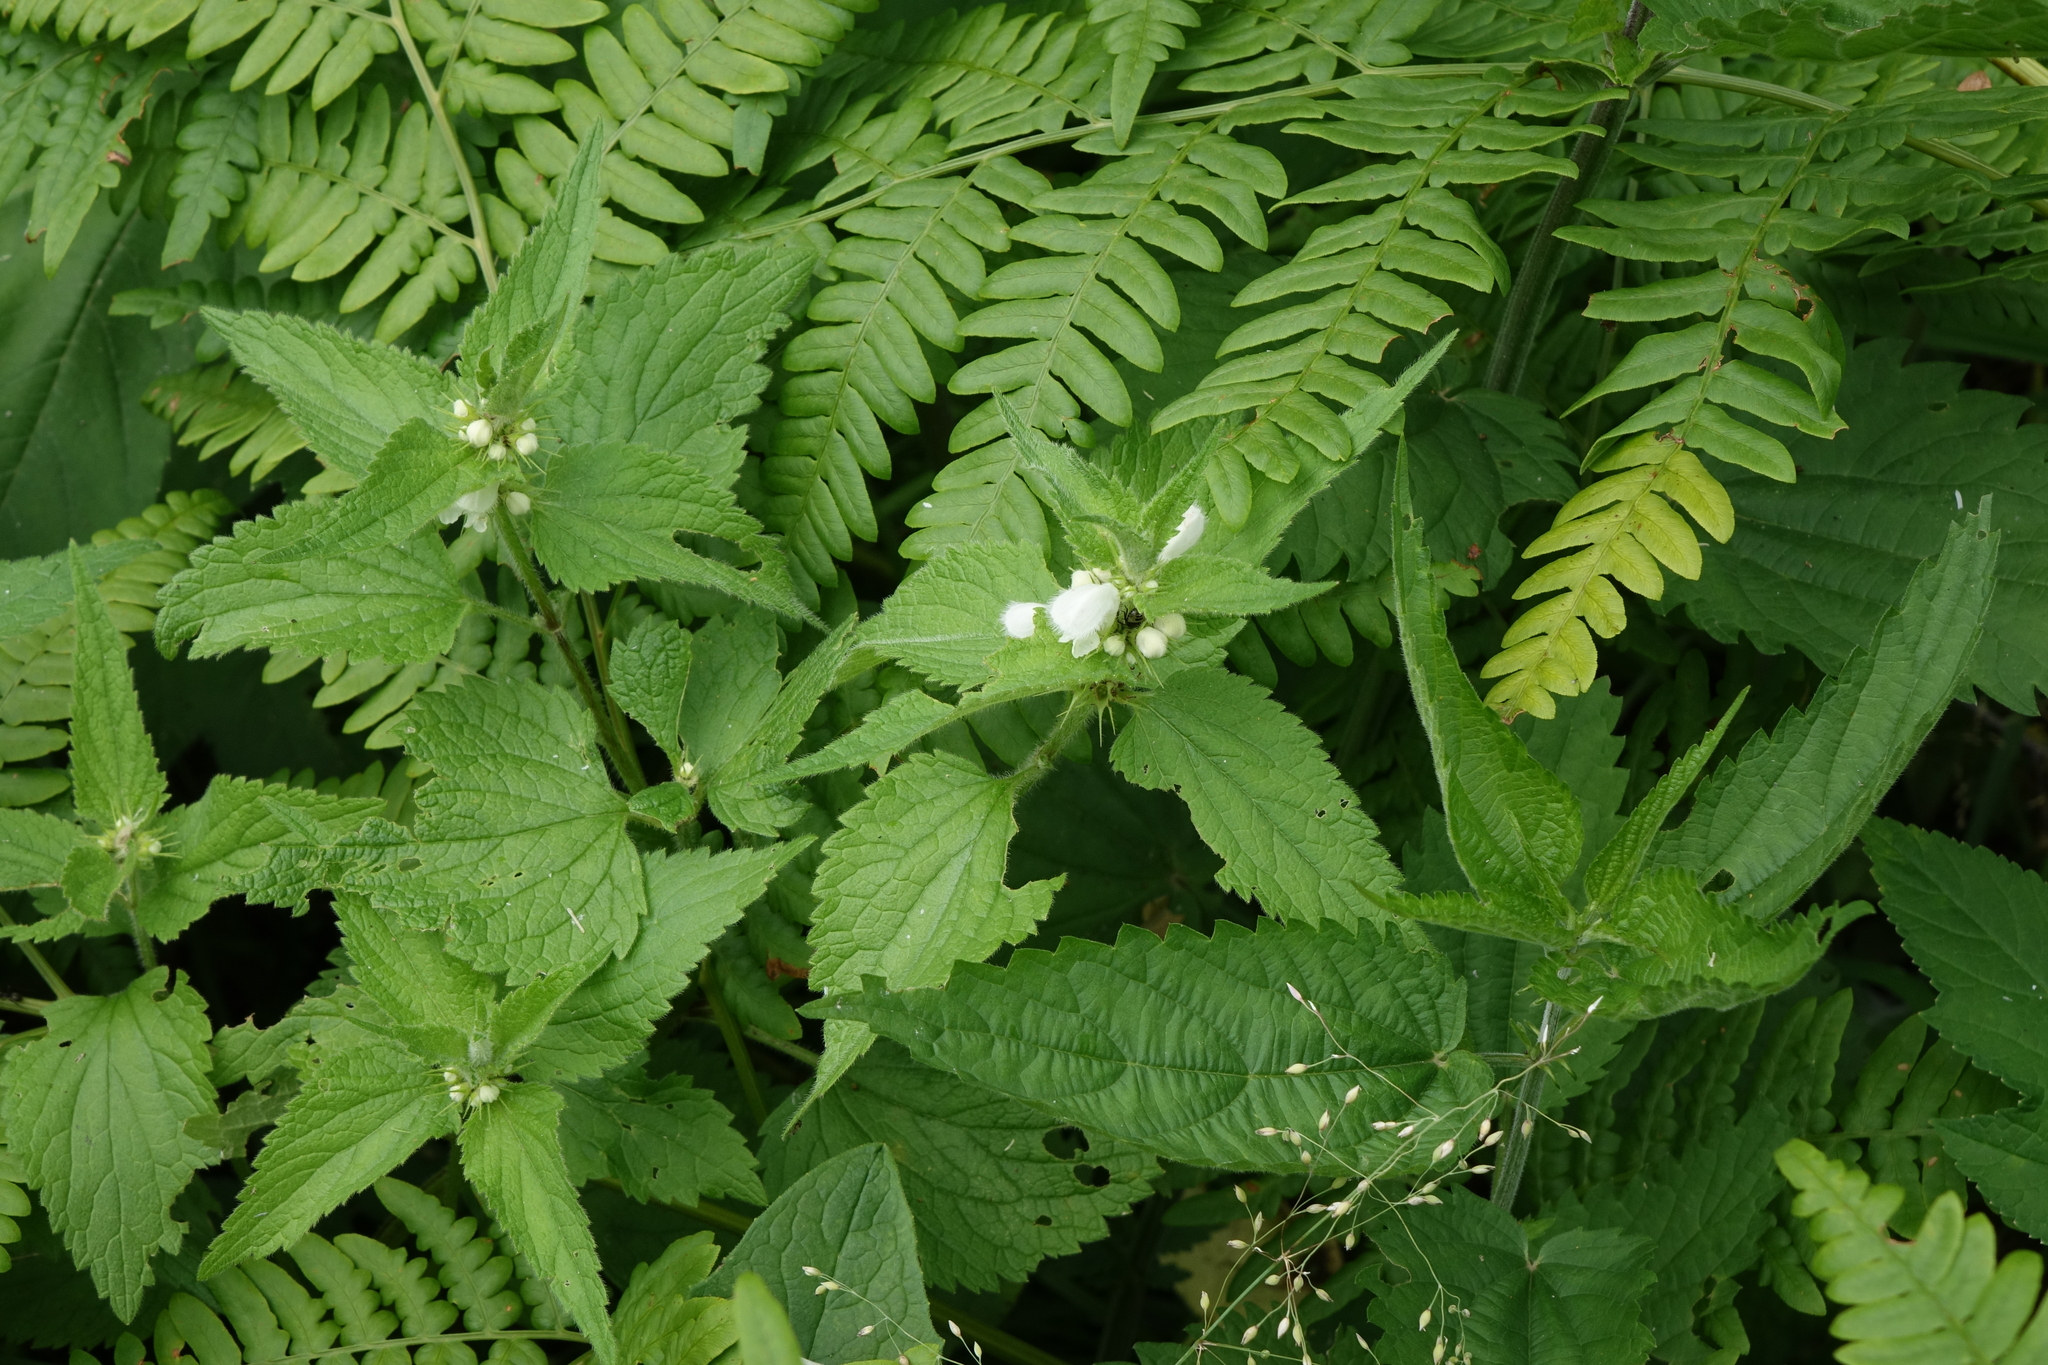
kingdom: Plantae
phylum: Tracheophyta
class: Magnoliopsida
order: Lamiales
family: Lamiaceae
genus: Lamium
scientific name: Lamium album
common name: White dead-nettle
